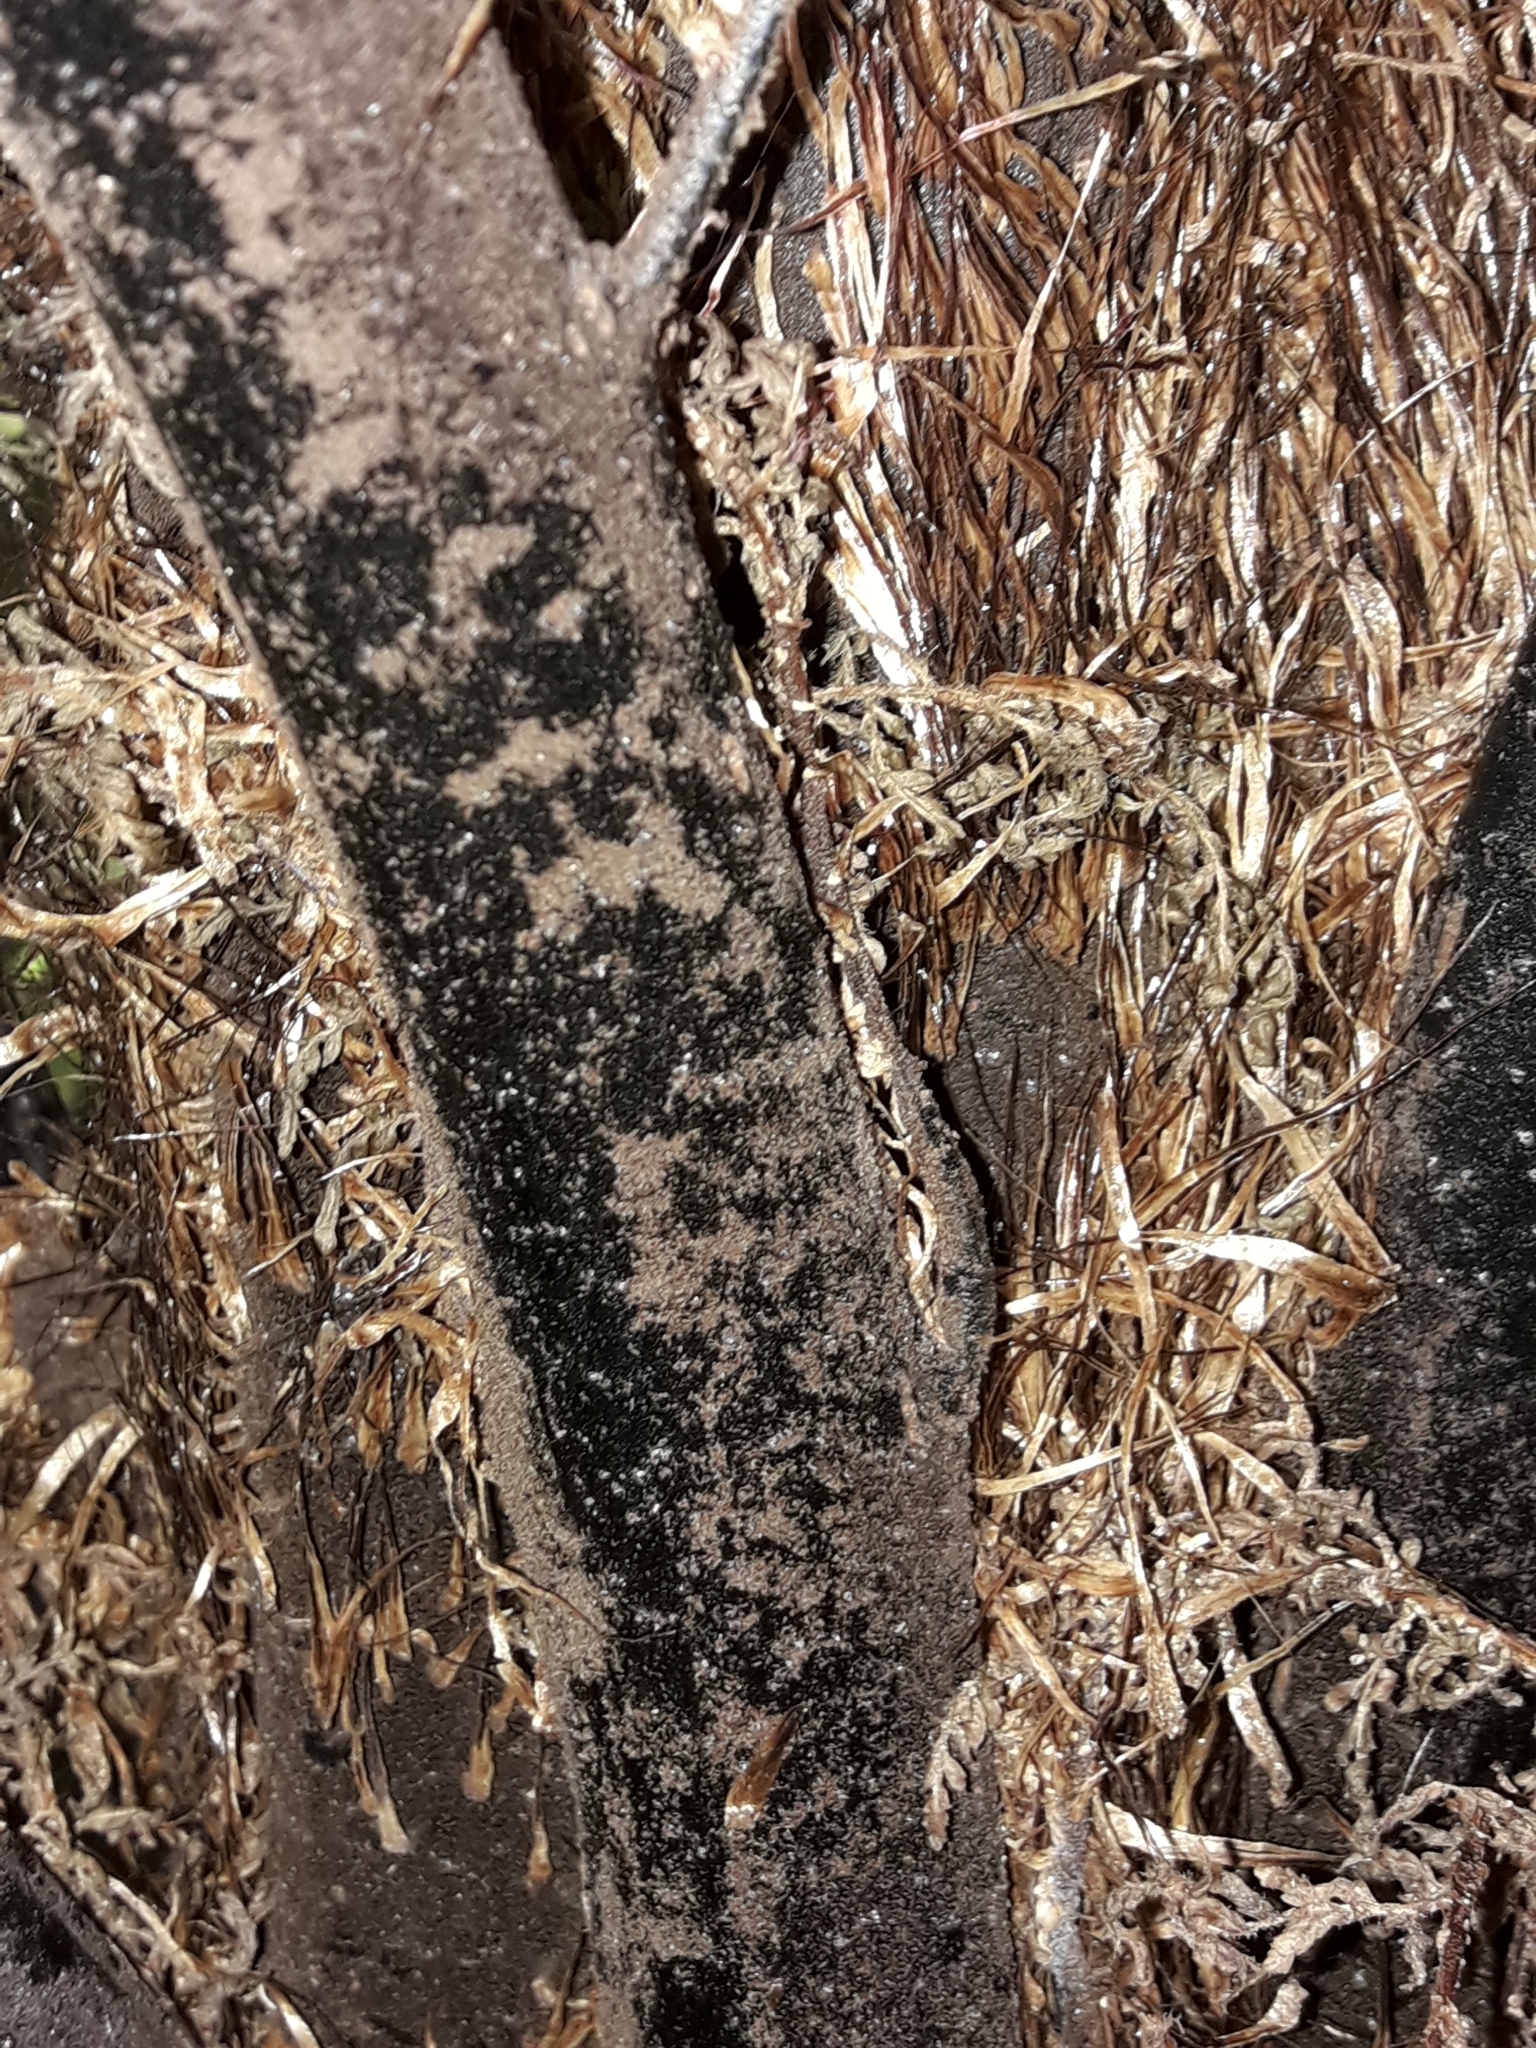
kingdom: Plantae
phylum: Tracheophyta
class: Polypodiopsida
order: Cyatheales
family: Cyatheaceae
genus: Cyathea
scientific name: Cyathea cunninghamii
